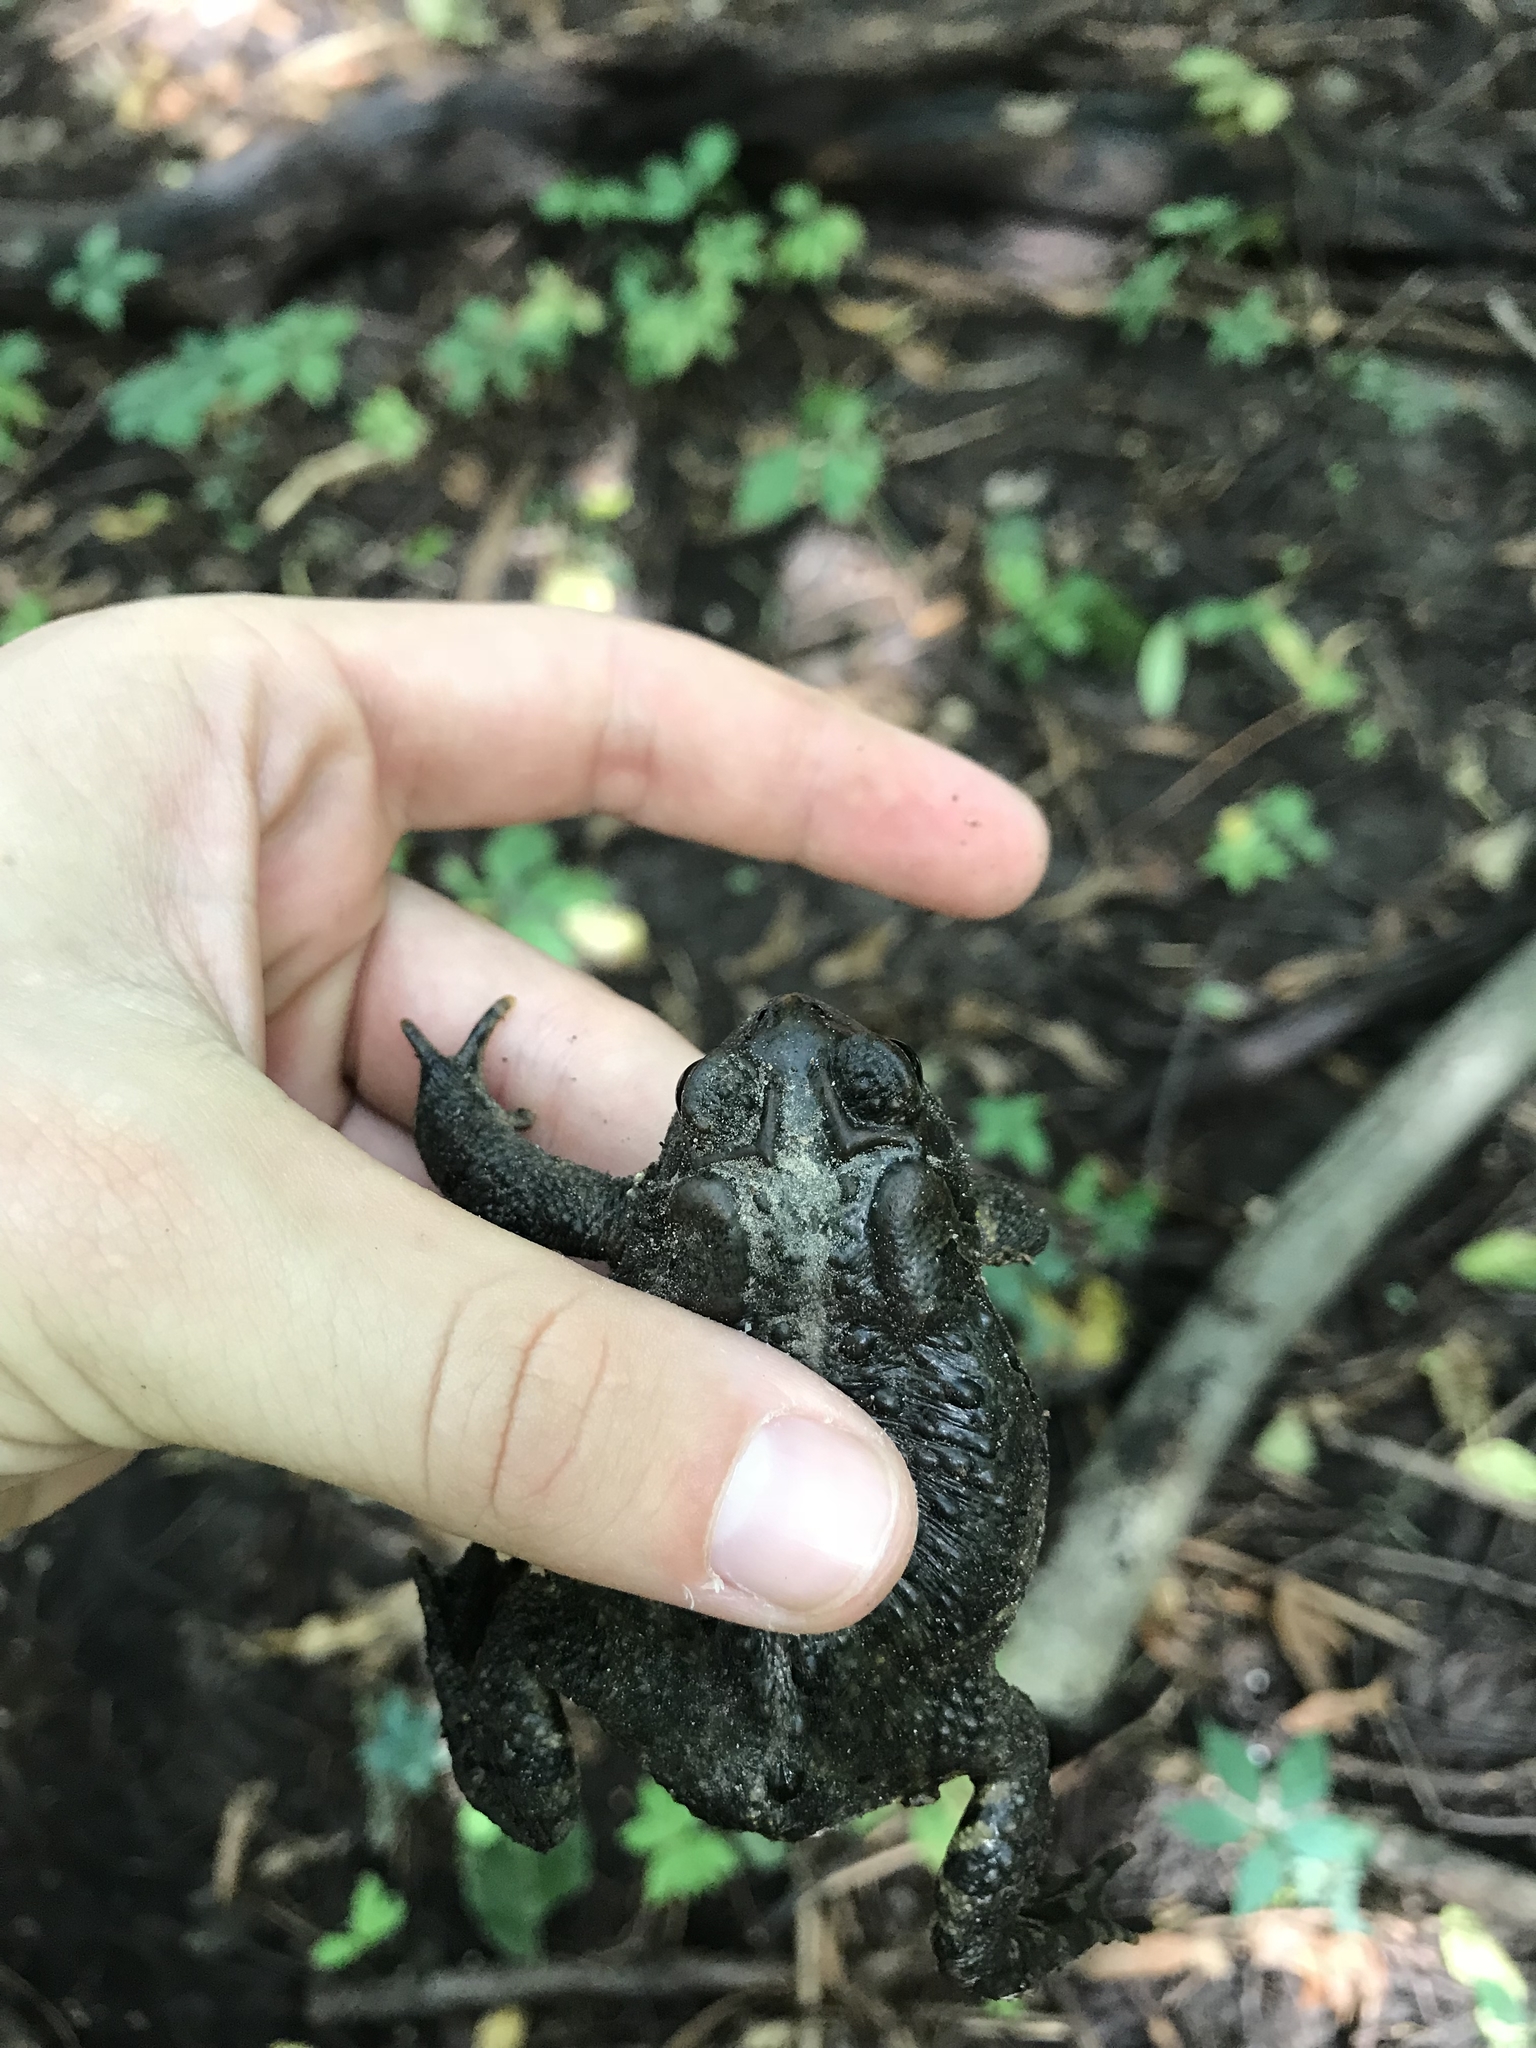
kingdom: Animalia
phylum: Chordata
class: Amphibia
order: Anura
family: Bufonidae
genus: Anaxyrus
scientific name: Anaxyrus americanus
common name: American toad
